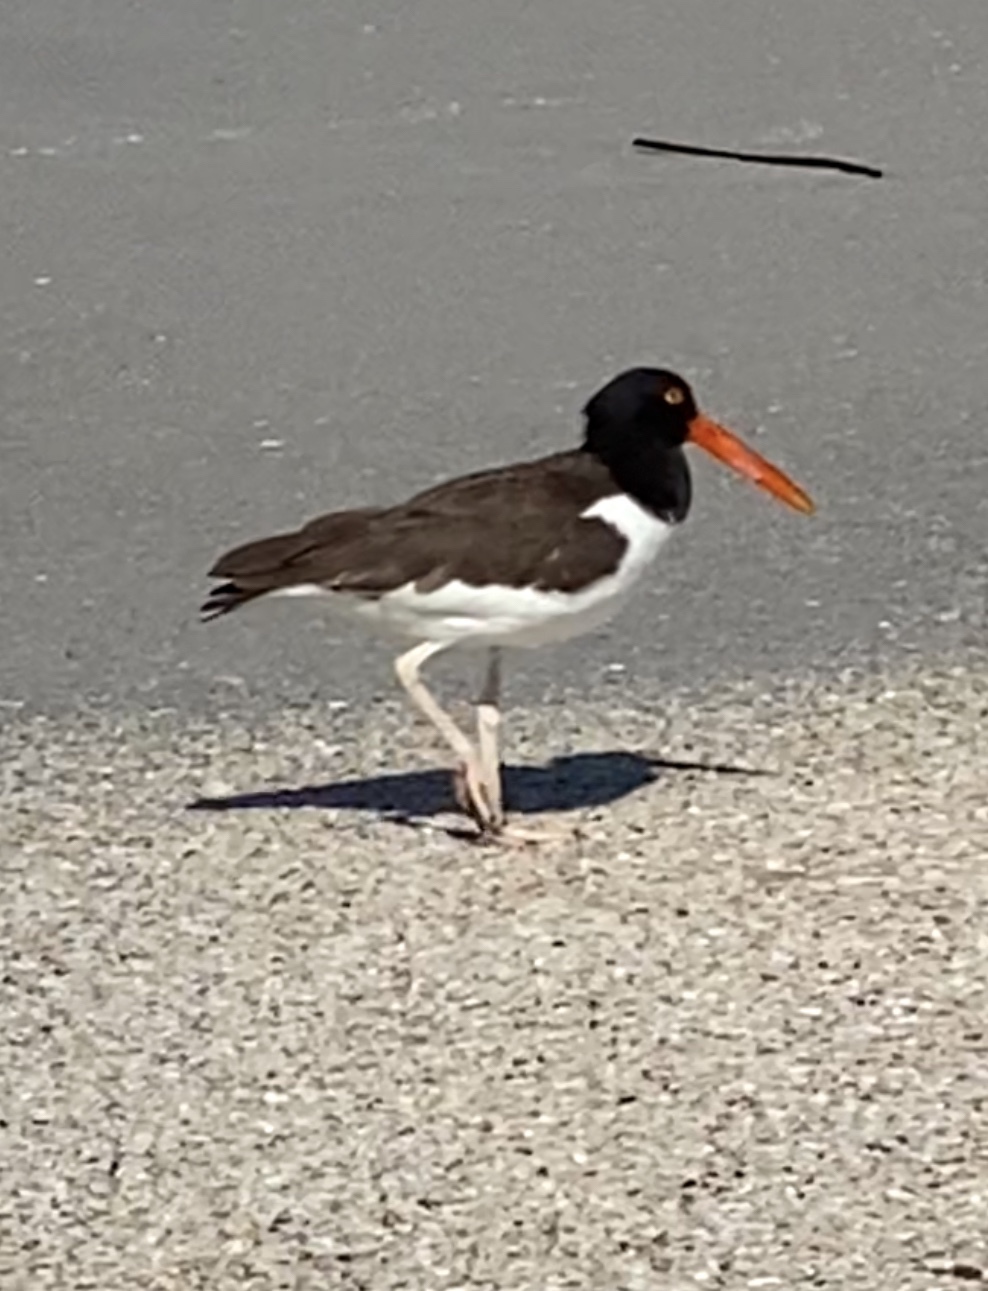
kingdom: Animalia
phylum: Chordata
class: Aves
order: Charadriiformes
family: Haematopodidae
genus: Haematopus
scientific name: Haematopus palliatus
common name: American oystercatcher
